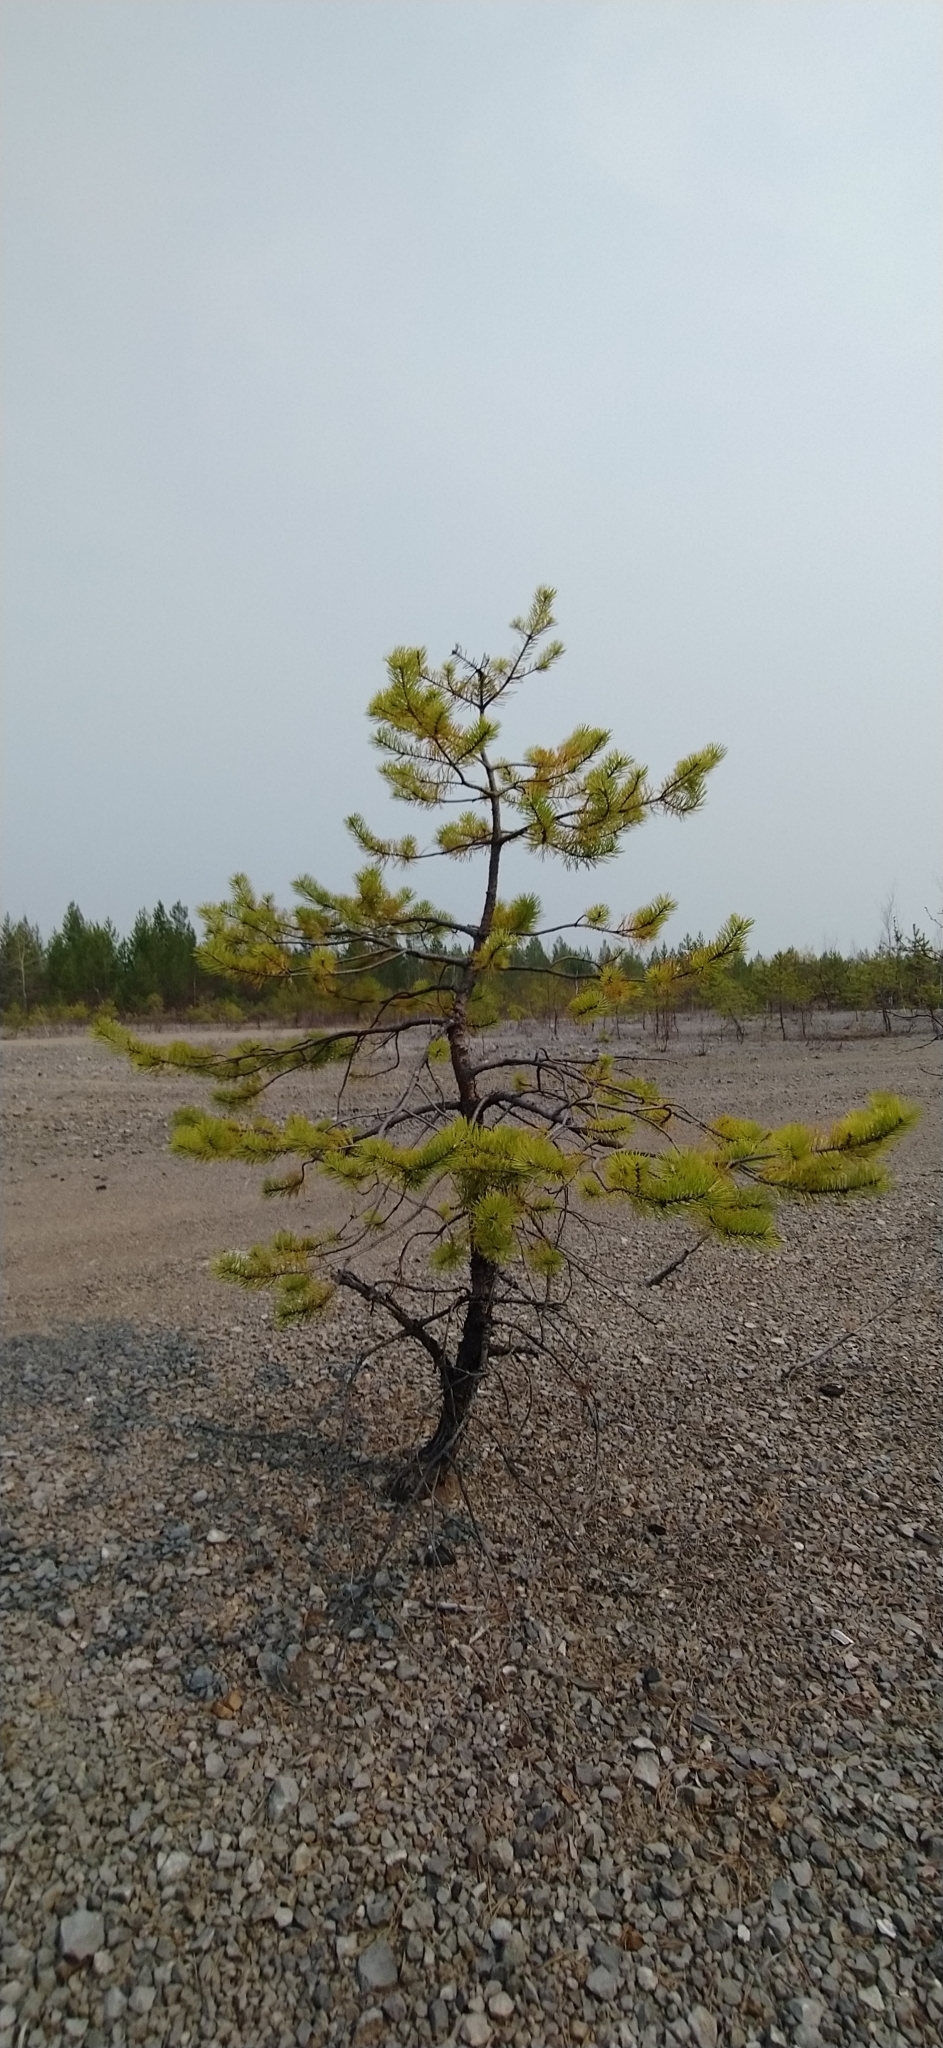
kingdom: Plantae
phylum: Tracheophyta
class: Pinopsida
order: Pinales
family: Pinaceae
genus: Pinus
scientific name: Pinus sylvestris
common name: Scots pine
